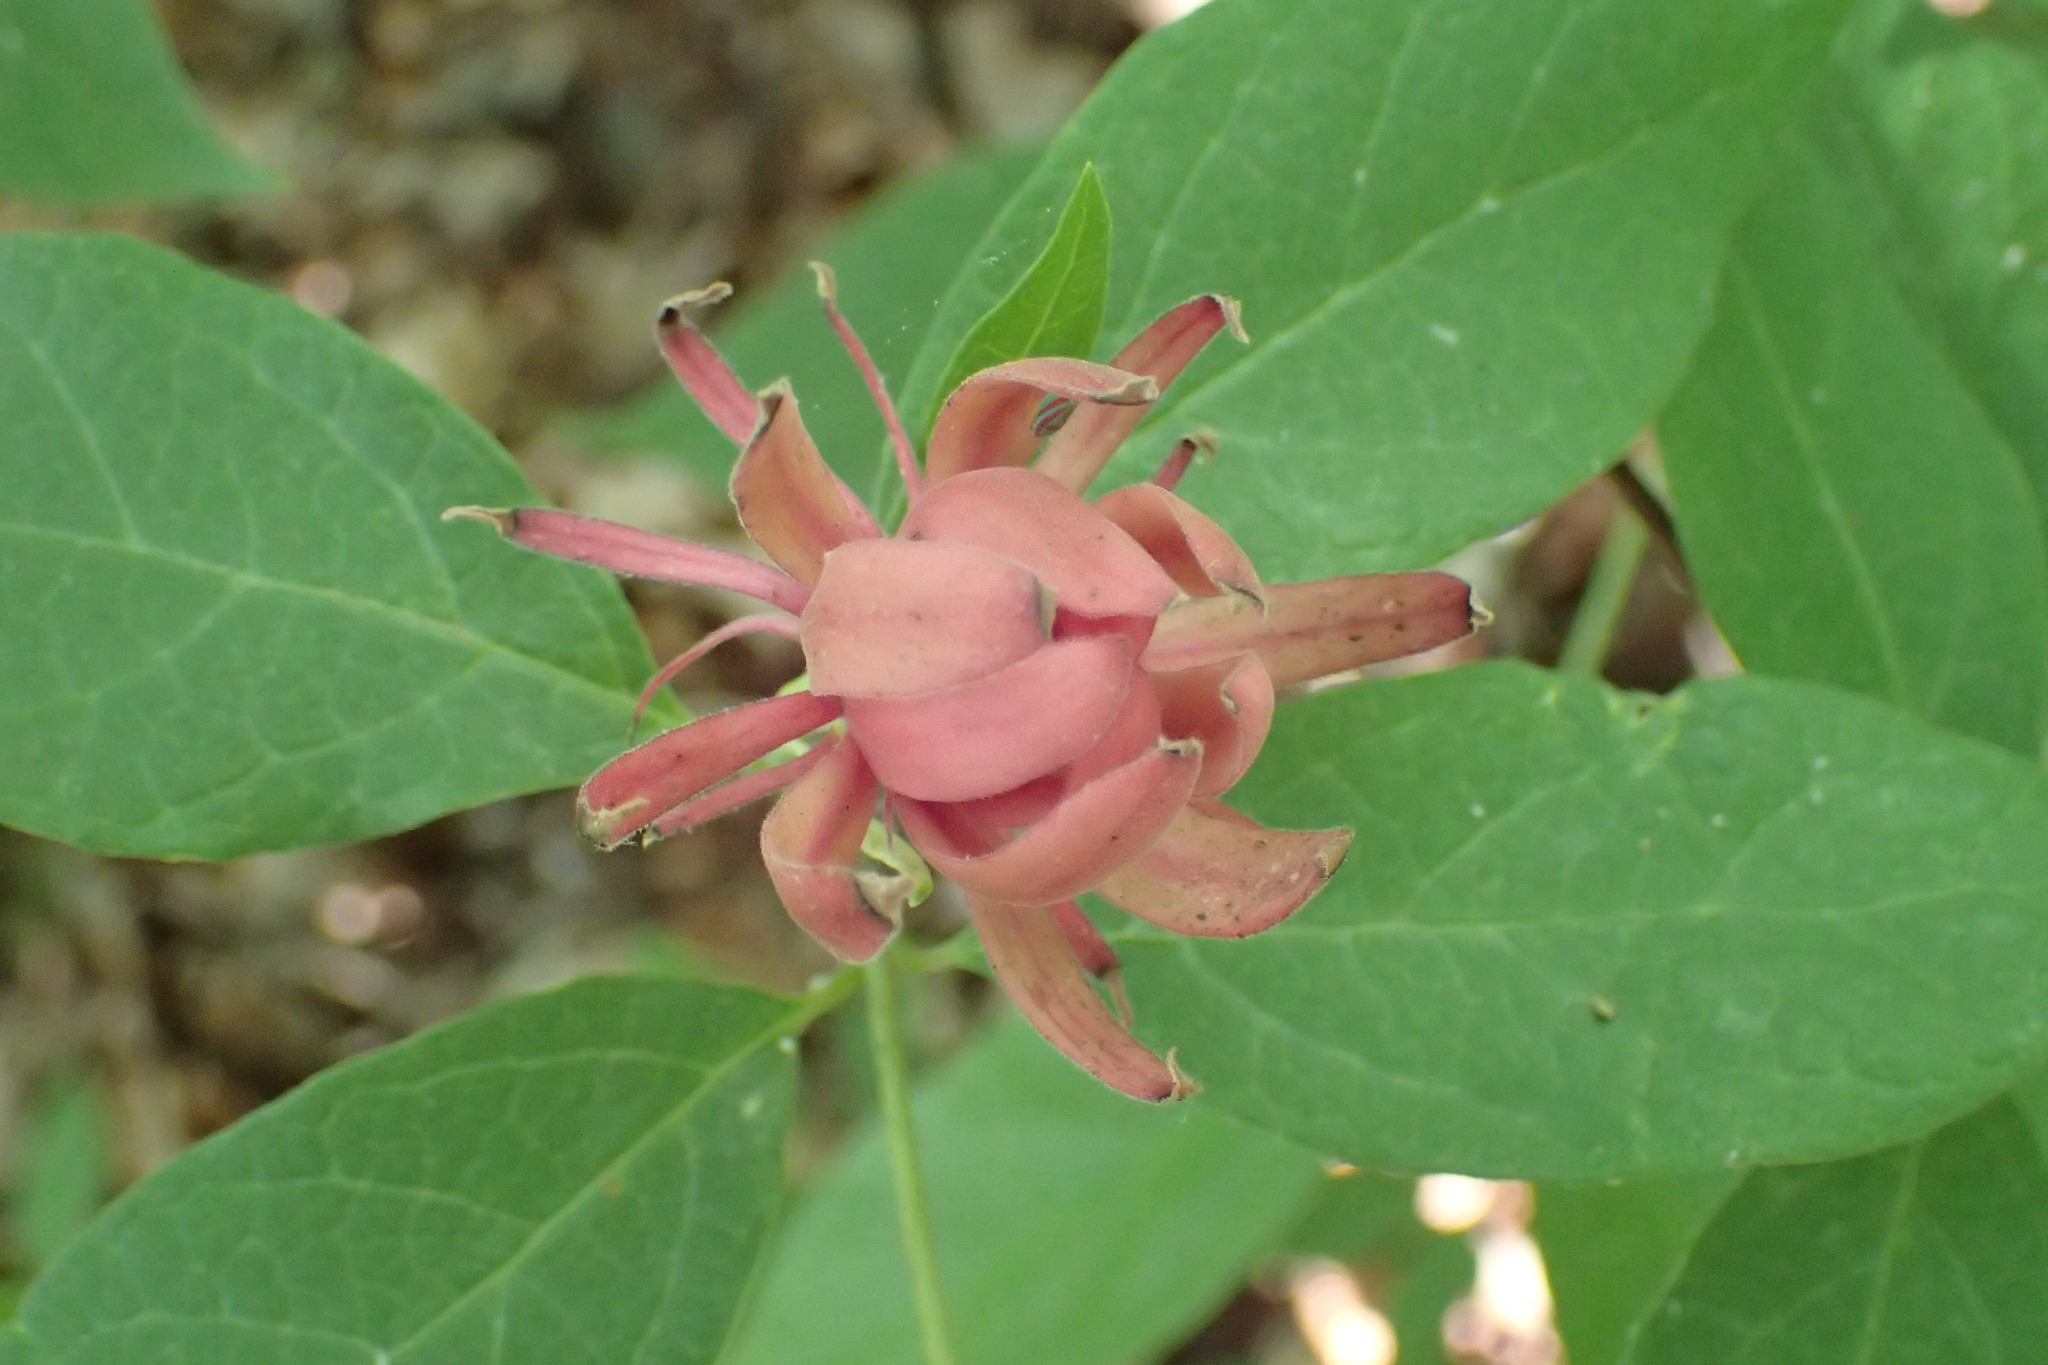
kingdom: Plantae
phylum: Tracheophyta
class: Magnoliopsida
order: Laurales
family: Calycanthaceae
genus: Calycanthus
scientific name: Calycanthus floridus
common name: Carolina-allspice
